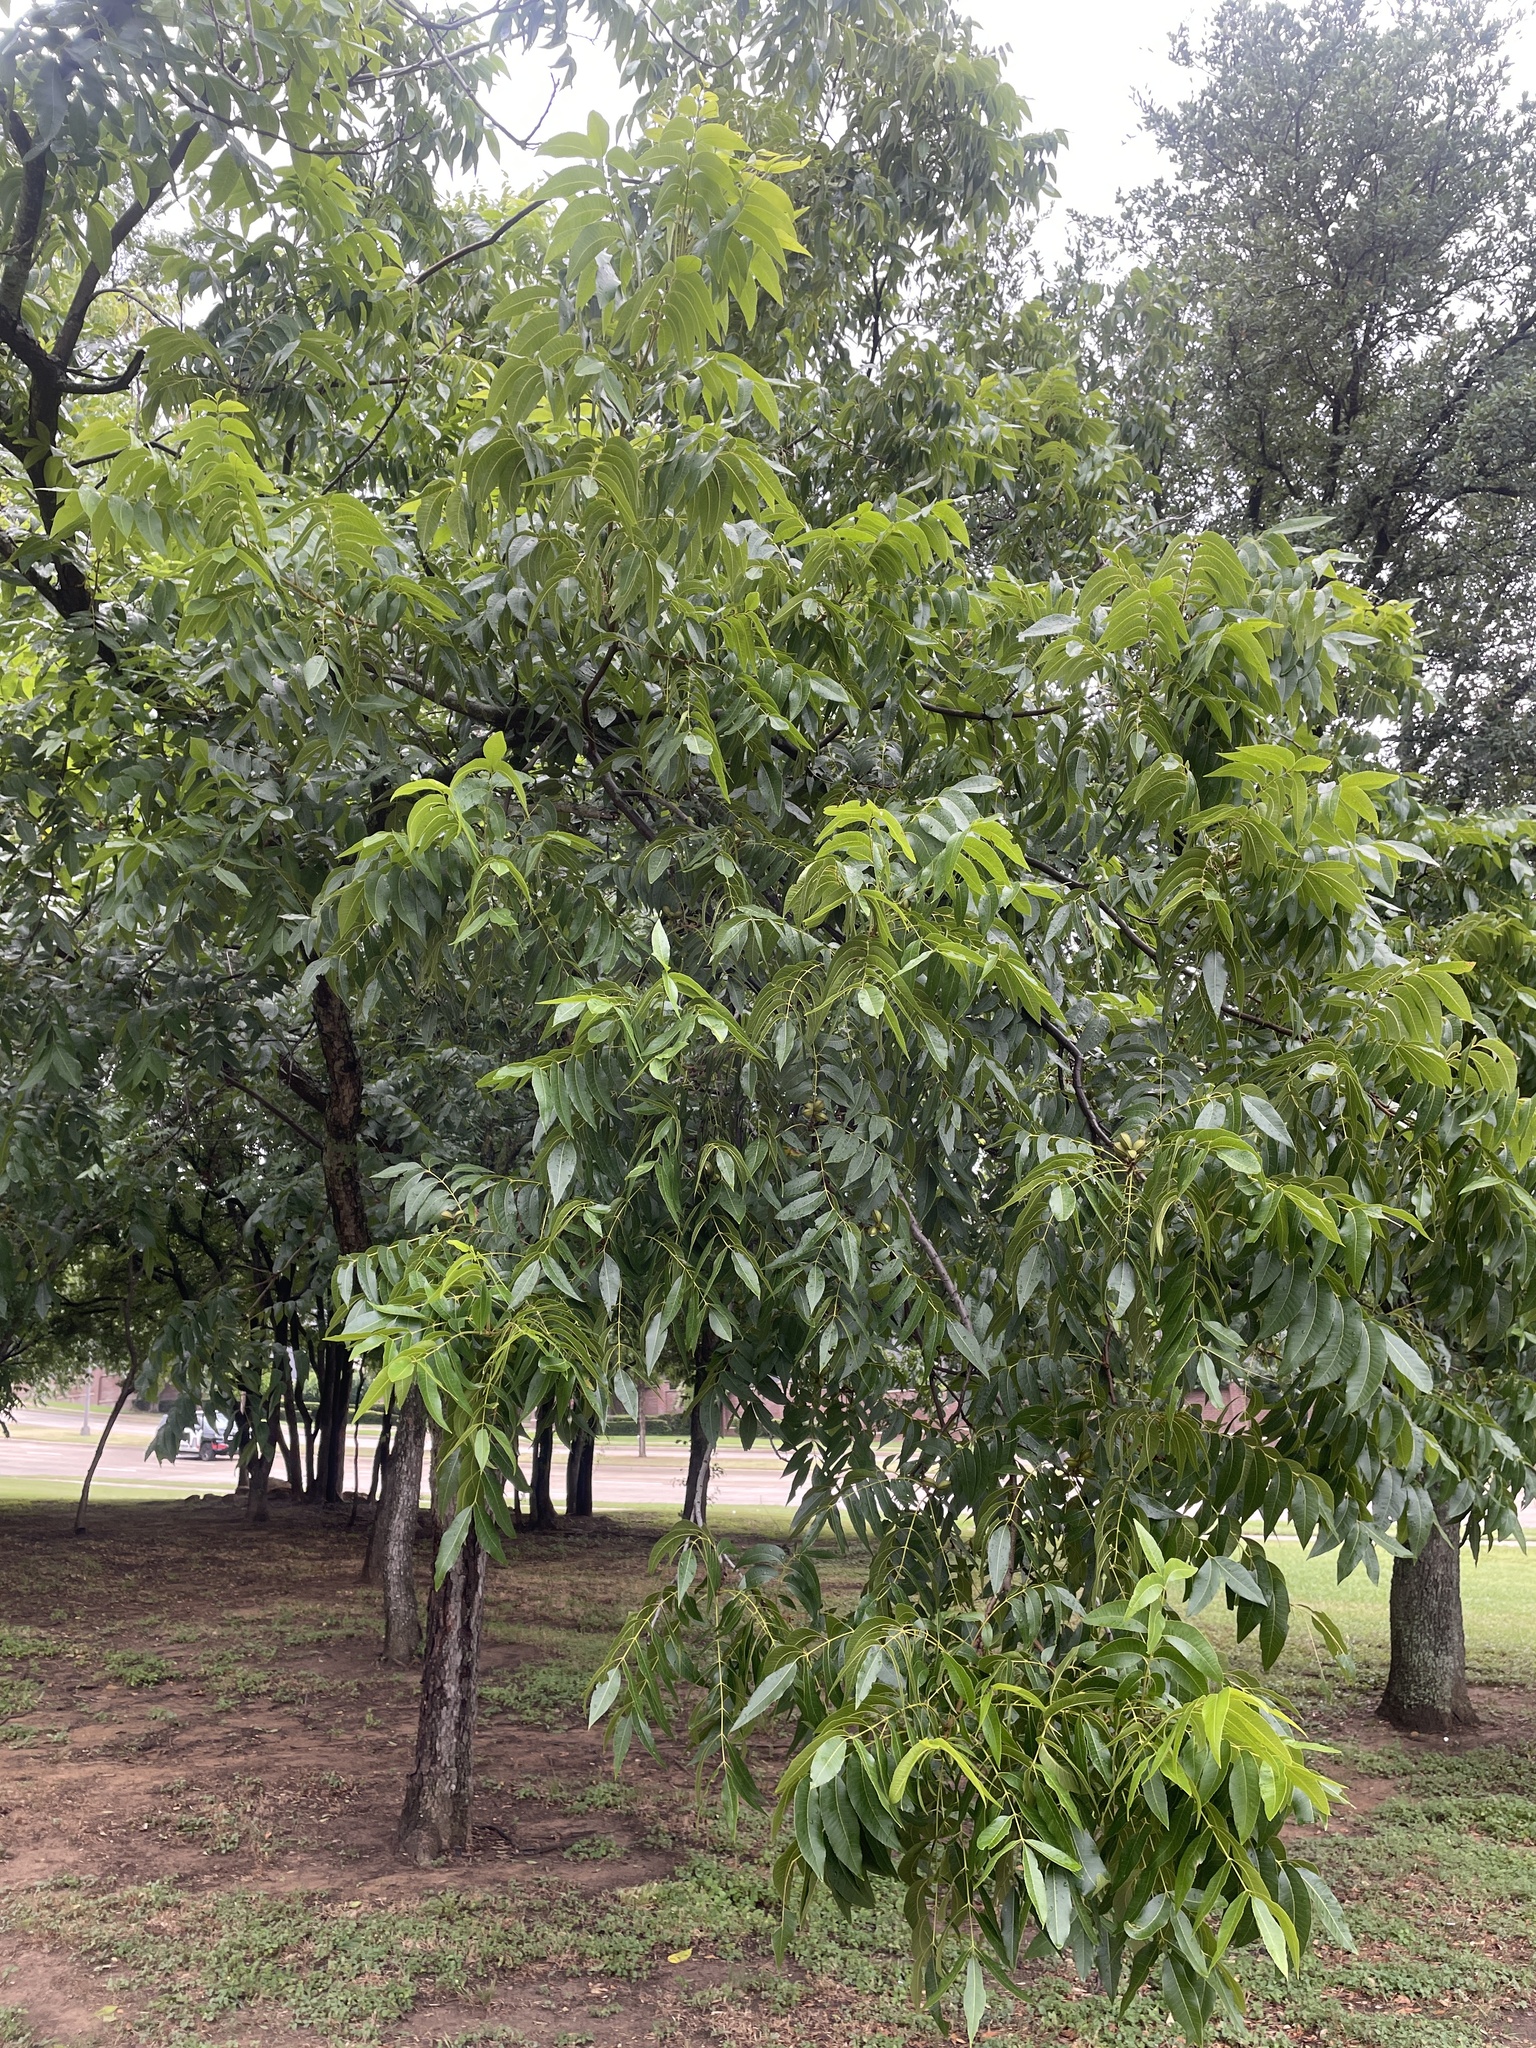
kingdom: Plantae
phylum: Tracheophyta
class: Magnoliopsida
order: Fagales
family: Juglandaceae
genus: Carya
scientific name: Carya illinoinensis
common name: Pecan
